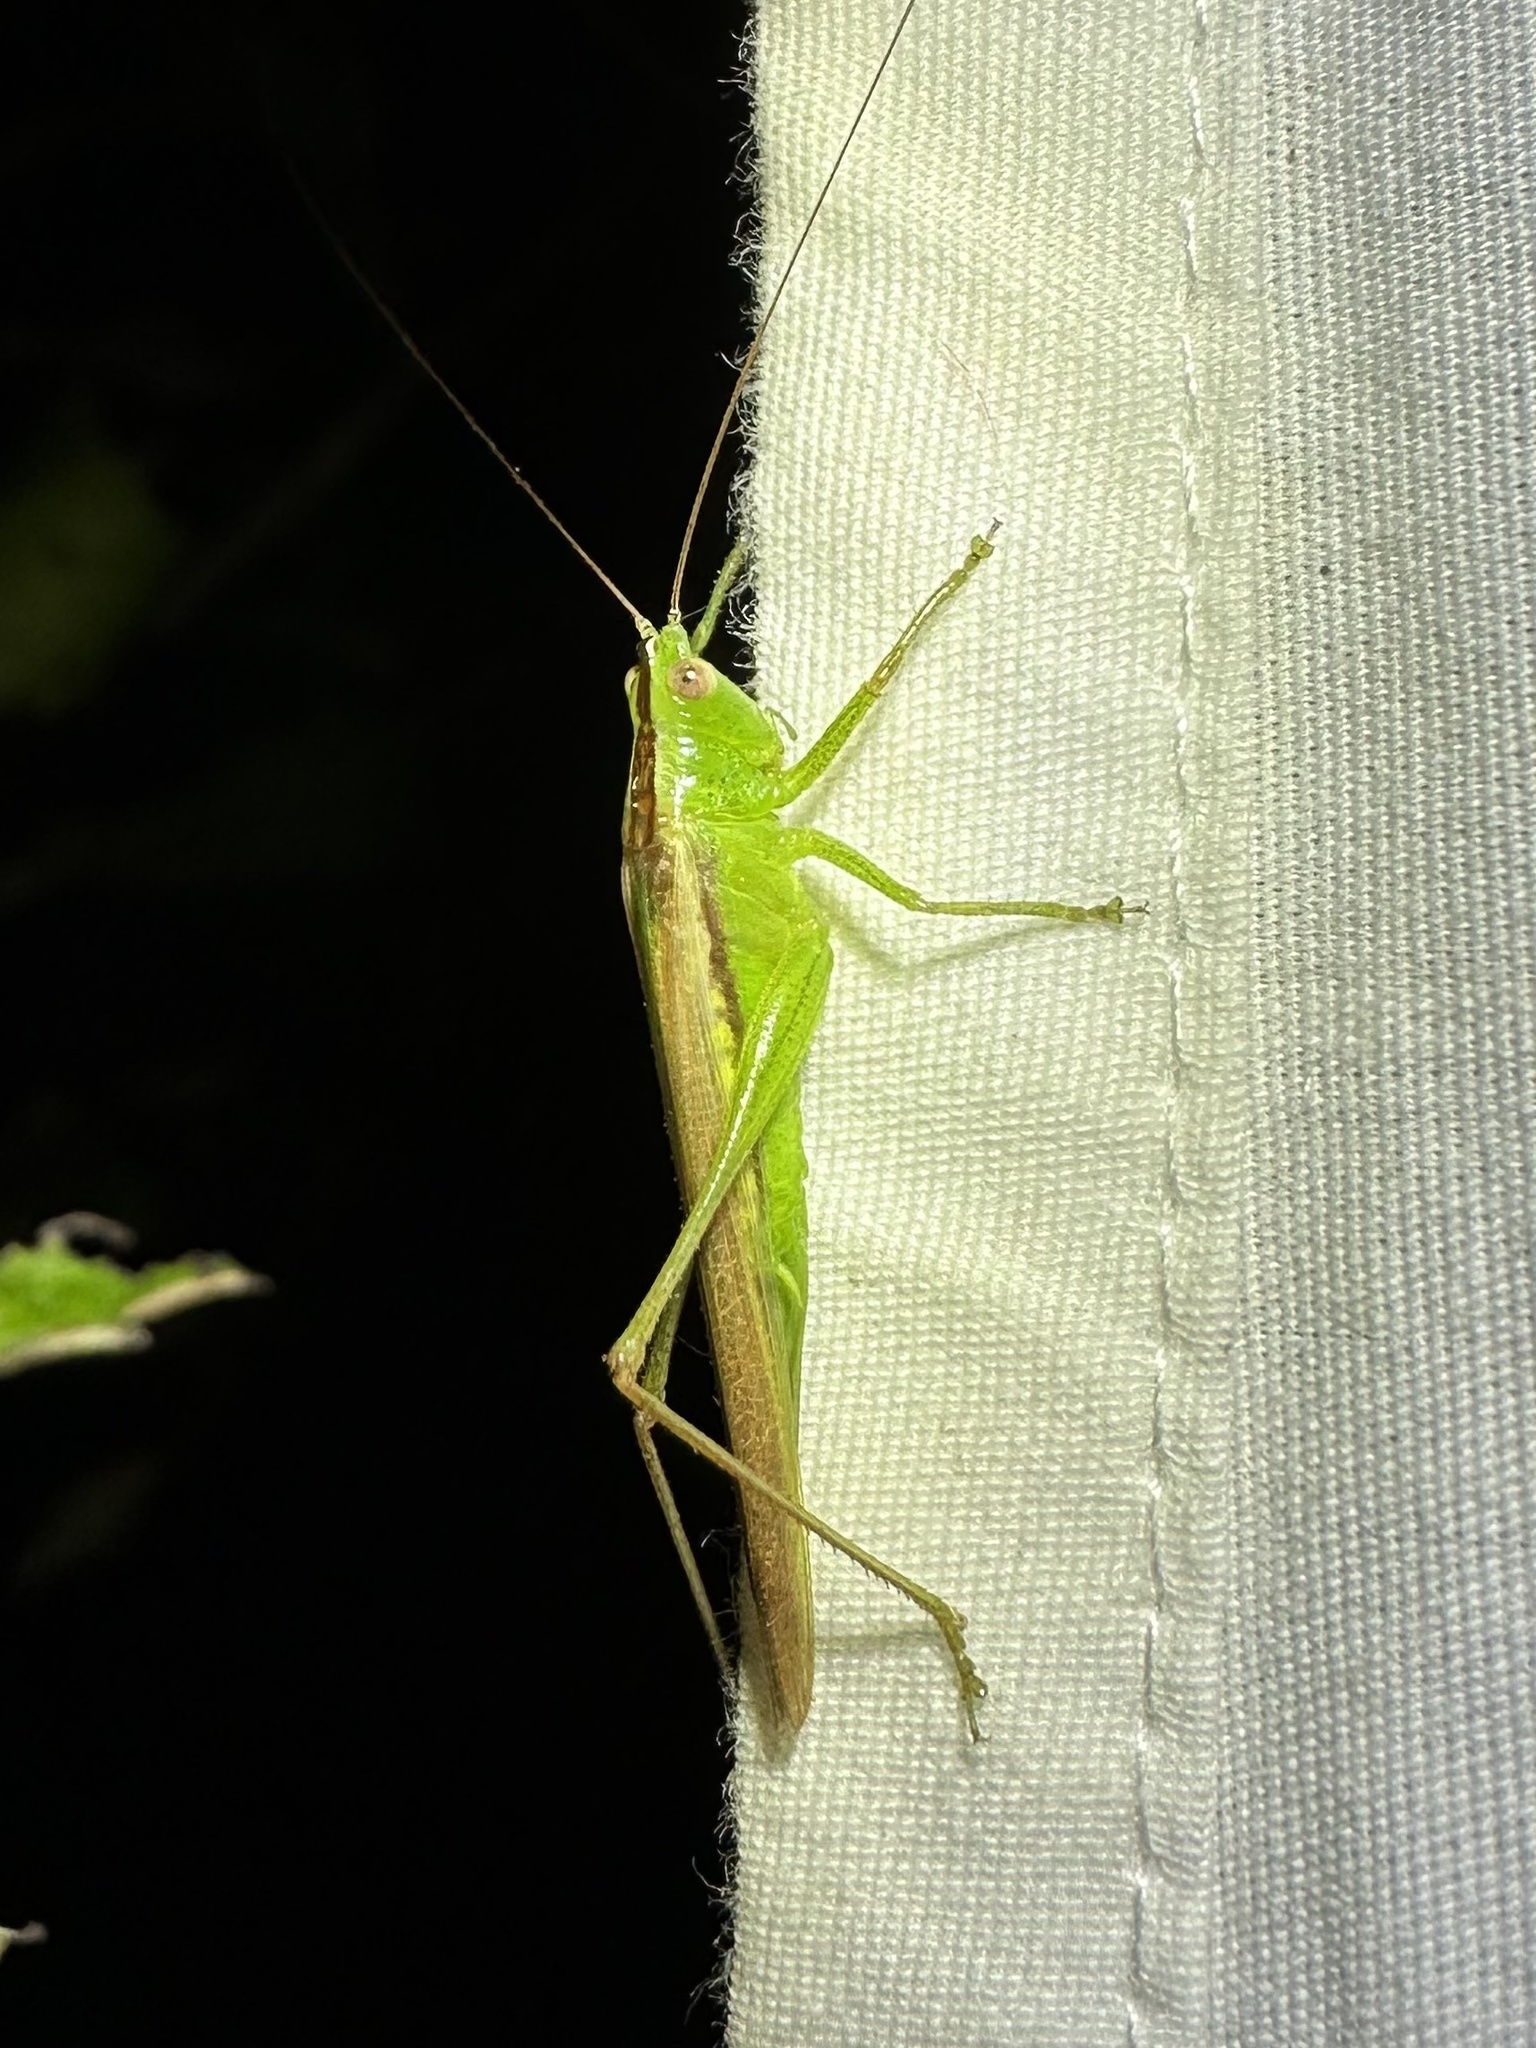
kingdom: Animalia
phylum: Arthropoda
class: Insecta
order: Orthoptera
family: Tettigoniidae
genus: Conocephalus
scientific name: Conocephalus fasciatus
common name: Slender meadow katydid
